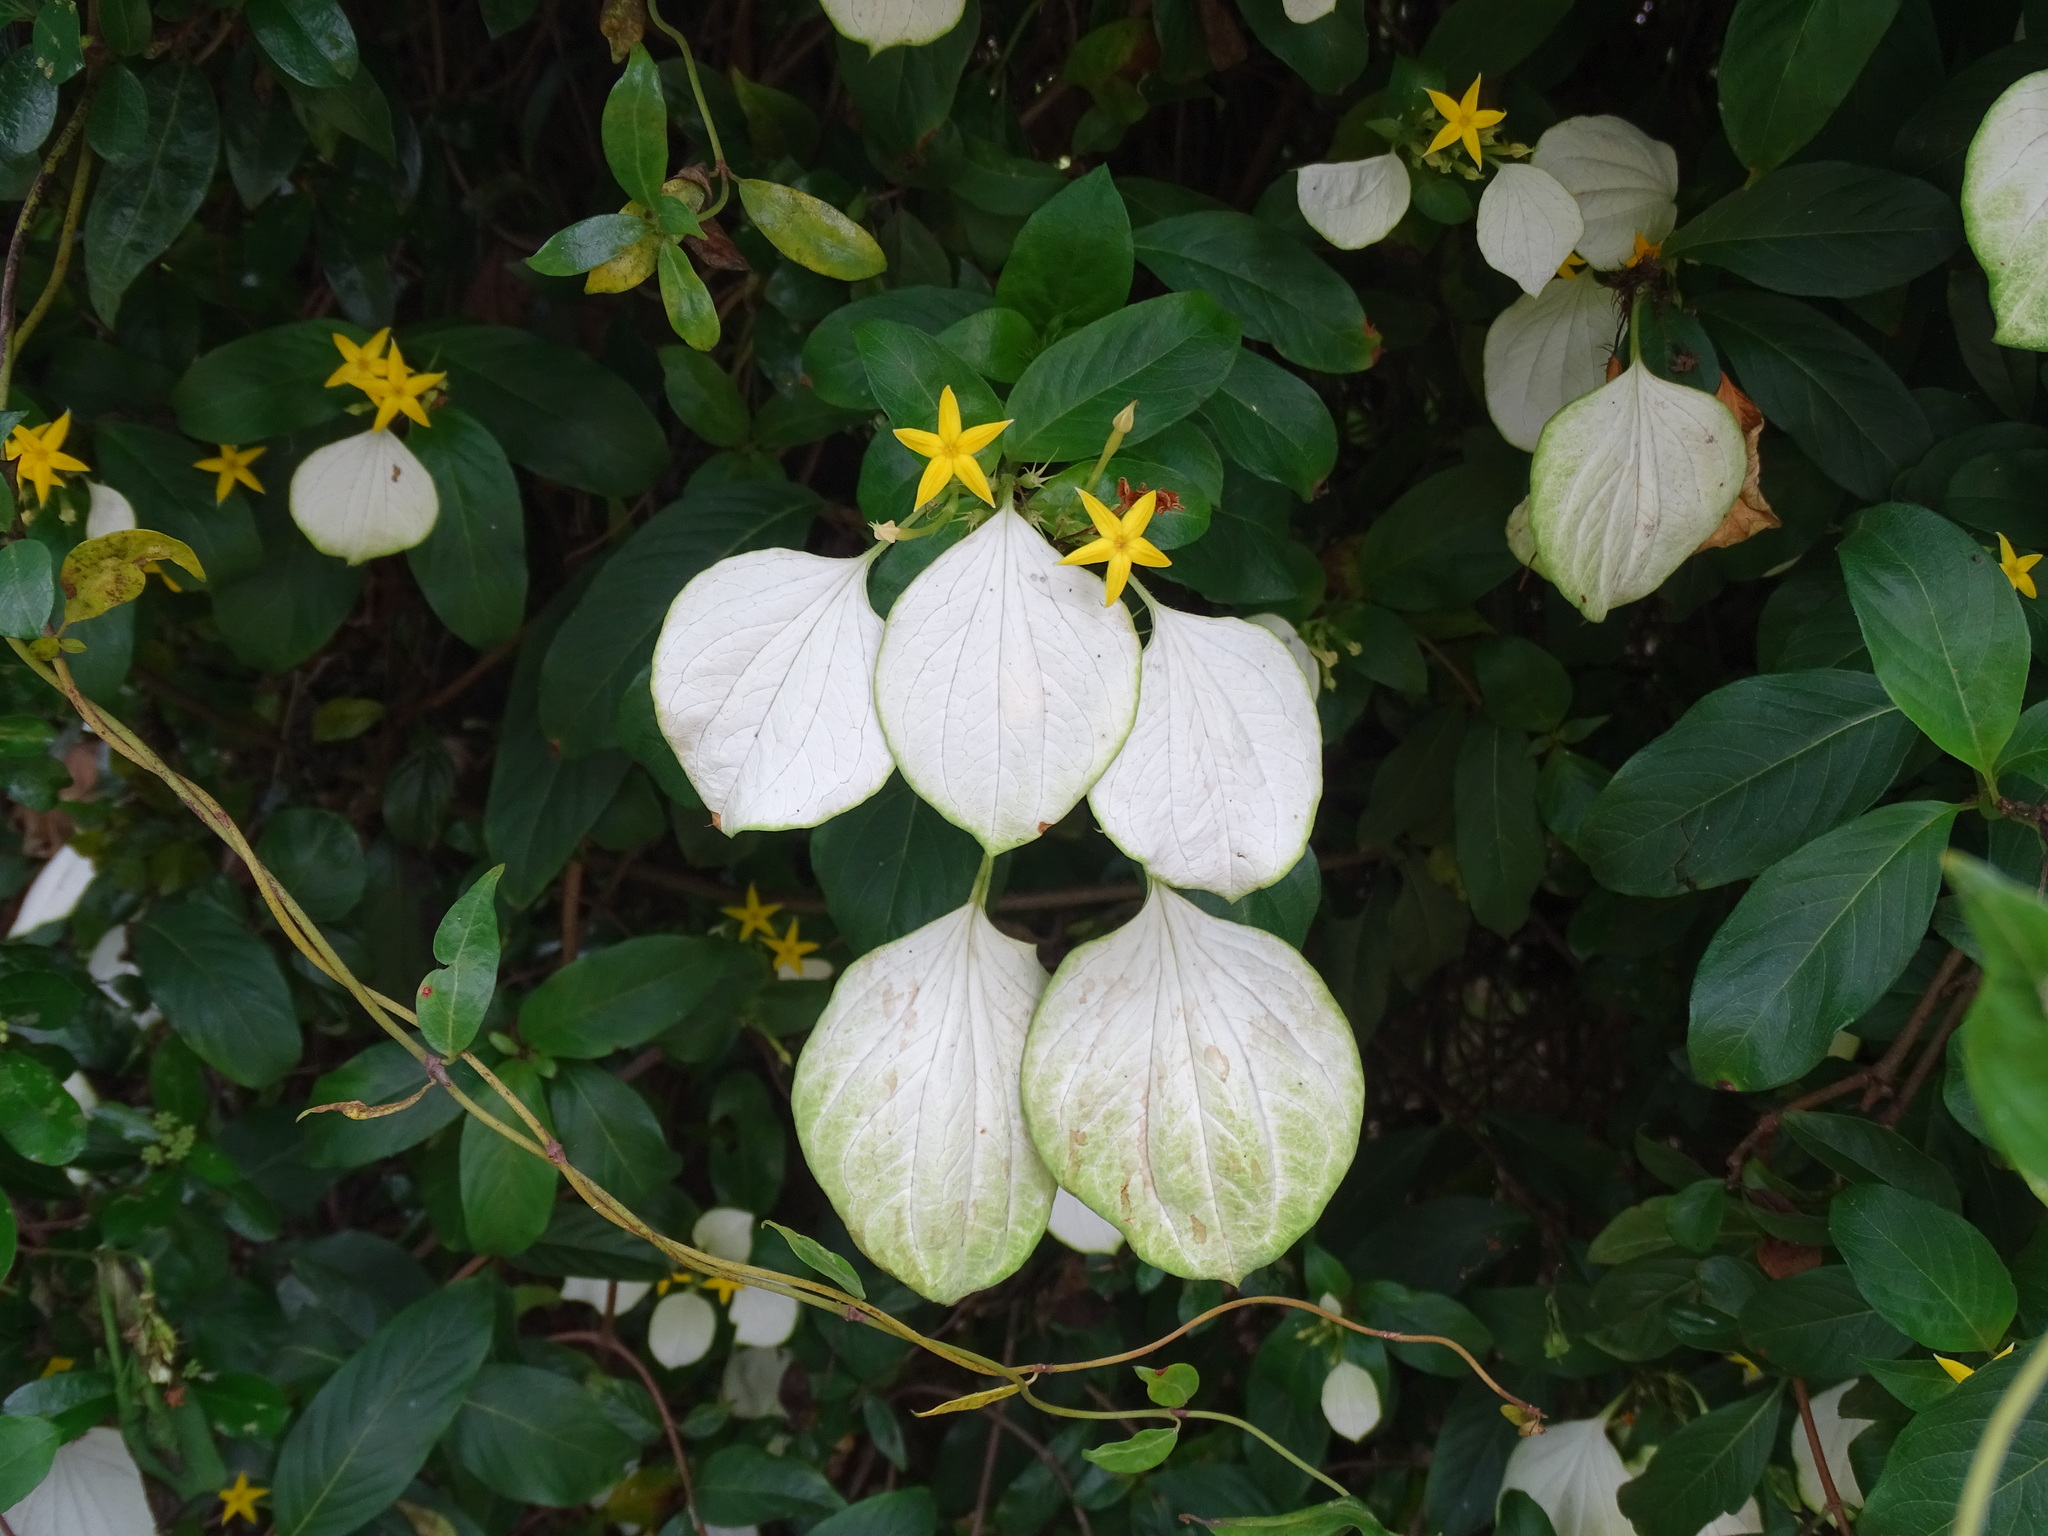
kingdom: Plantae
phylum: Tracheophyta
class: Magnoliopsida
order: Gentianales
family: Rubiaceae
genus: Mussaenda
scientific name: Mussaenda formosana
